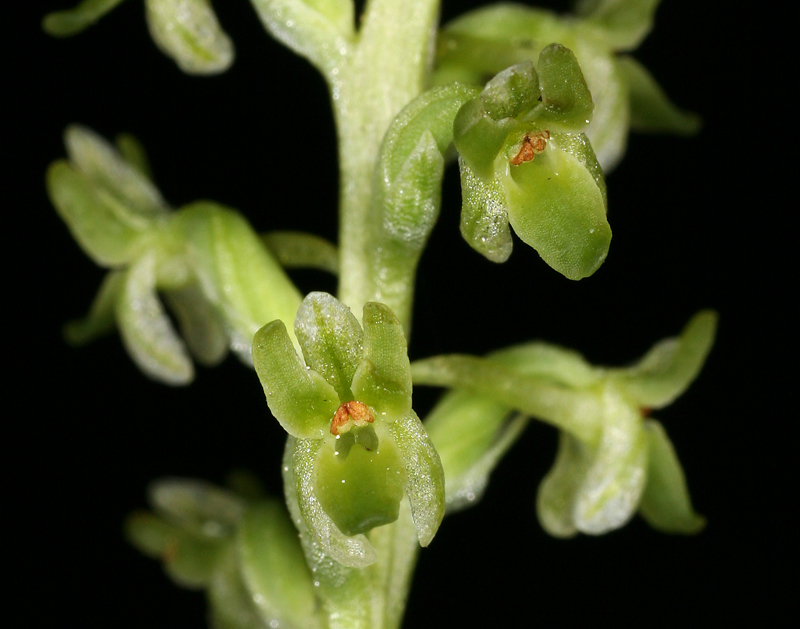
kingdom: Plantae
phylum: Tracheophyta
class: Liliopsida
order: Asparagales
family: Orchidaceae
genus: Platanthera
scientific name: Platanthera unalascensis
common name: Alaska bog orchid
